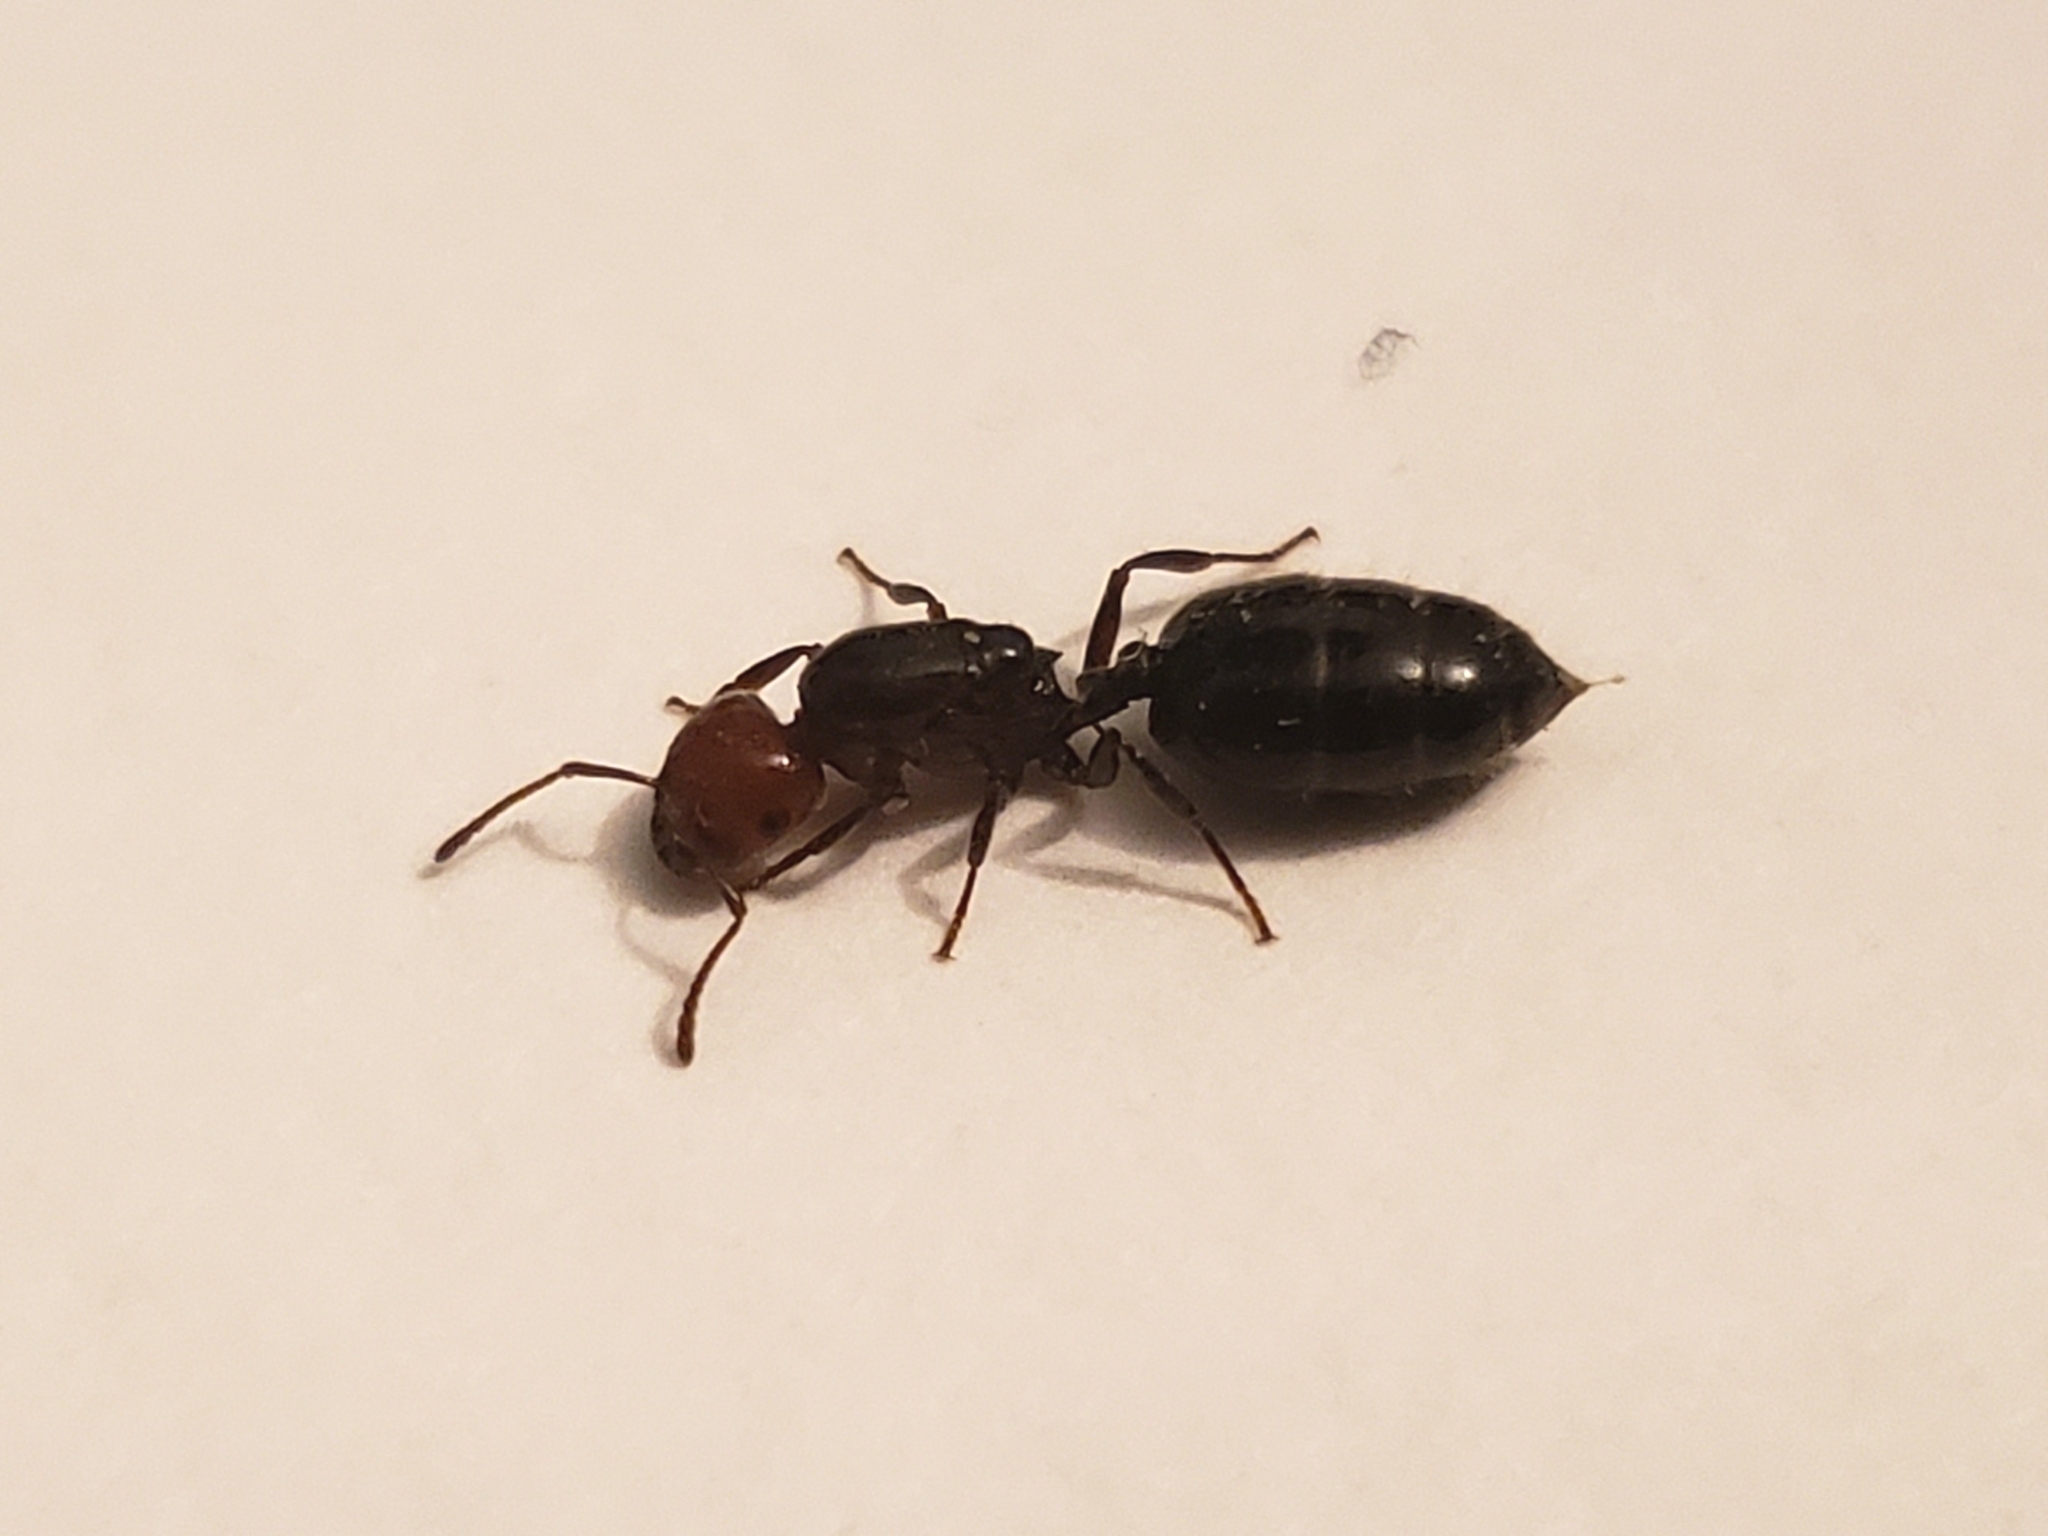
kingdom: Animalia
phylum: Arthropoda
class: Insecta
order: Hymenoptera
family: Formicidae
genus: Crematogaster
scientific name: Crematogaster scutellaris
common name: Fourmi du liège
